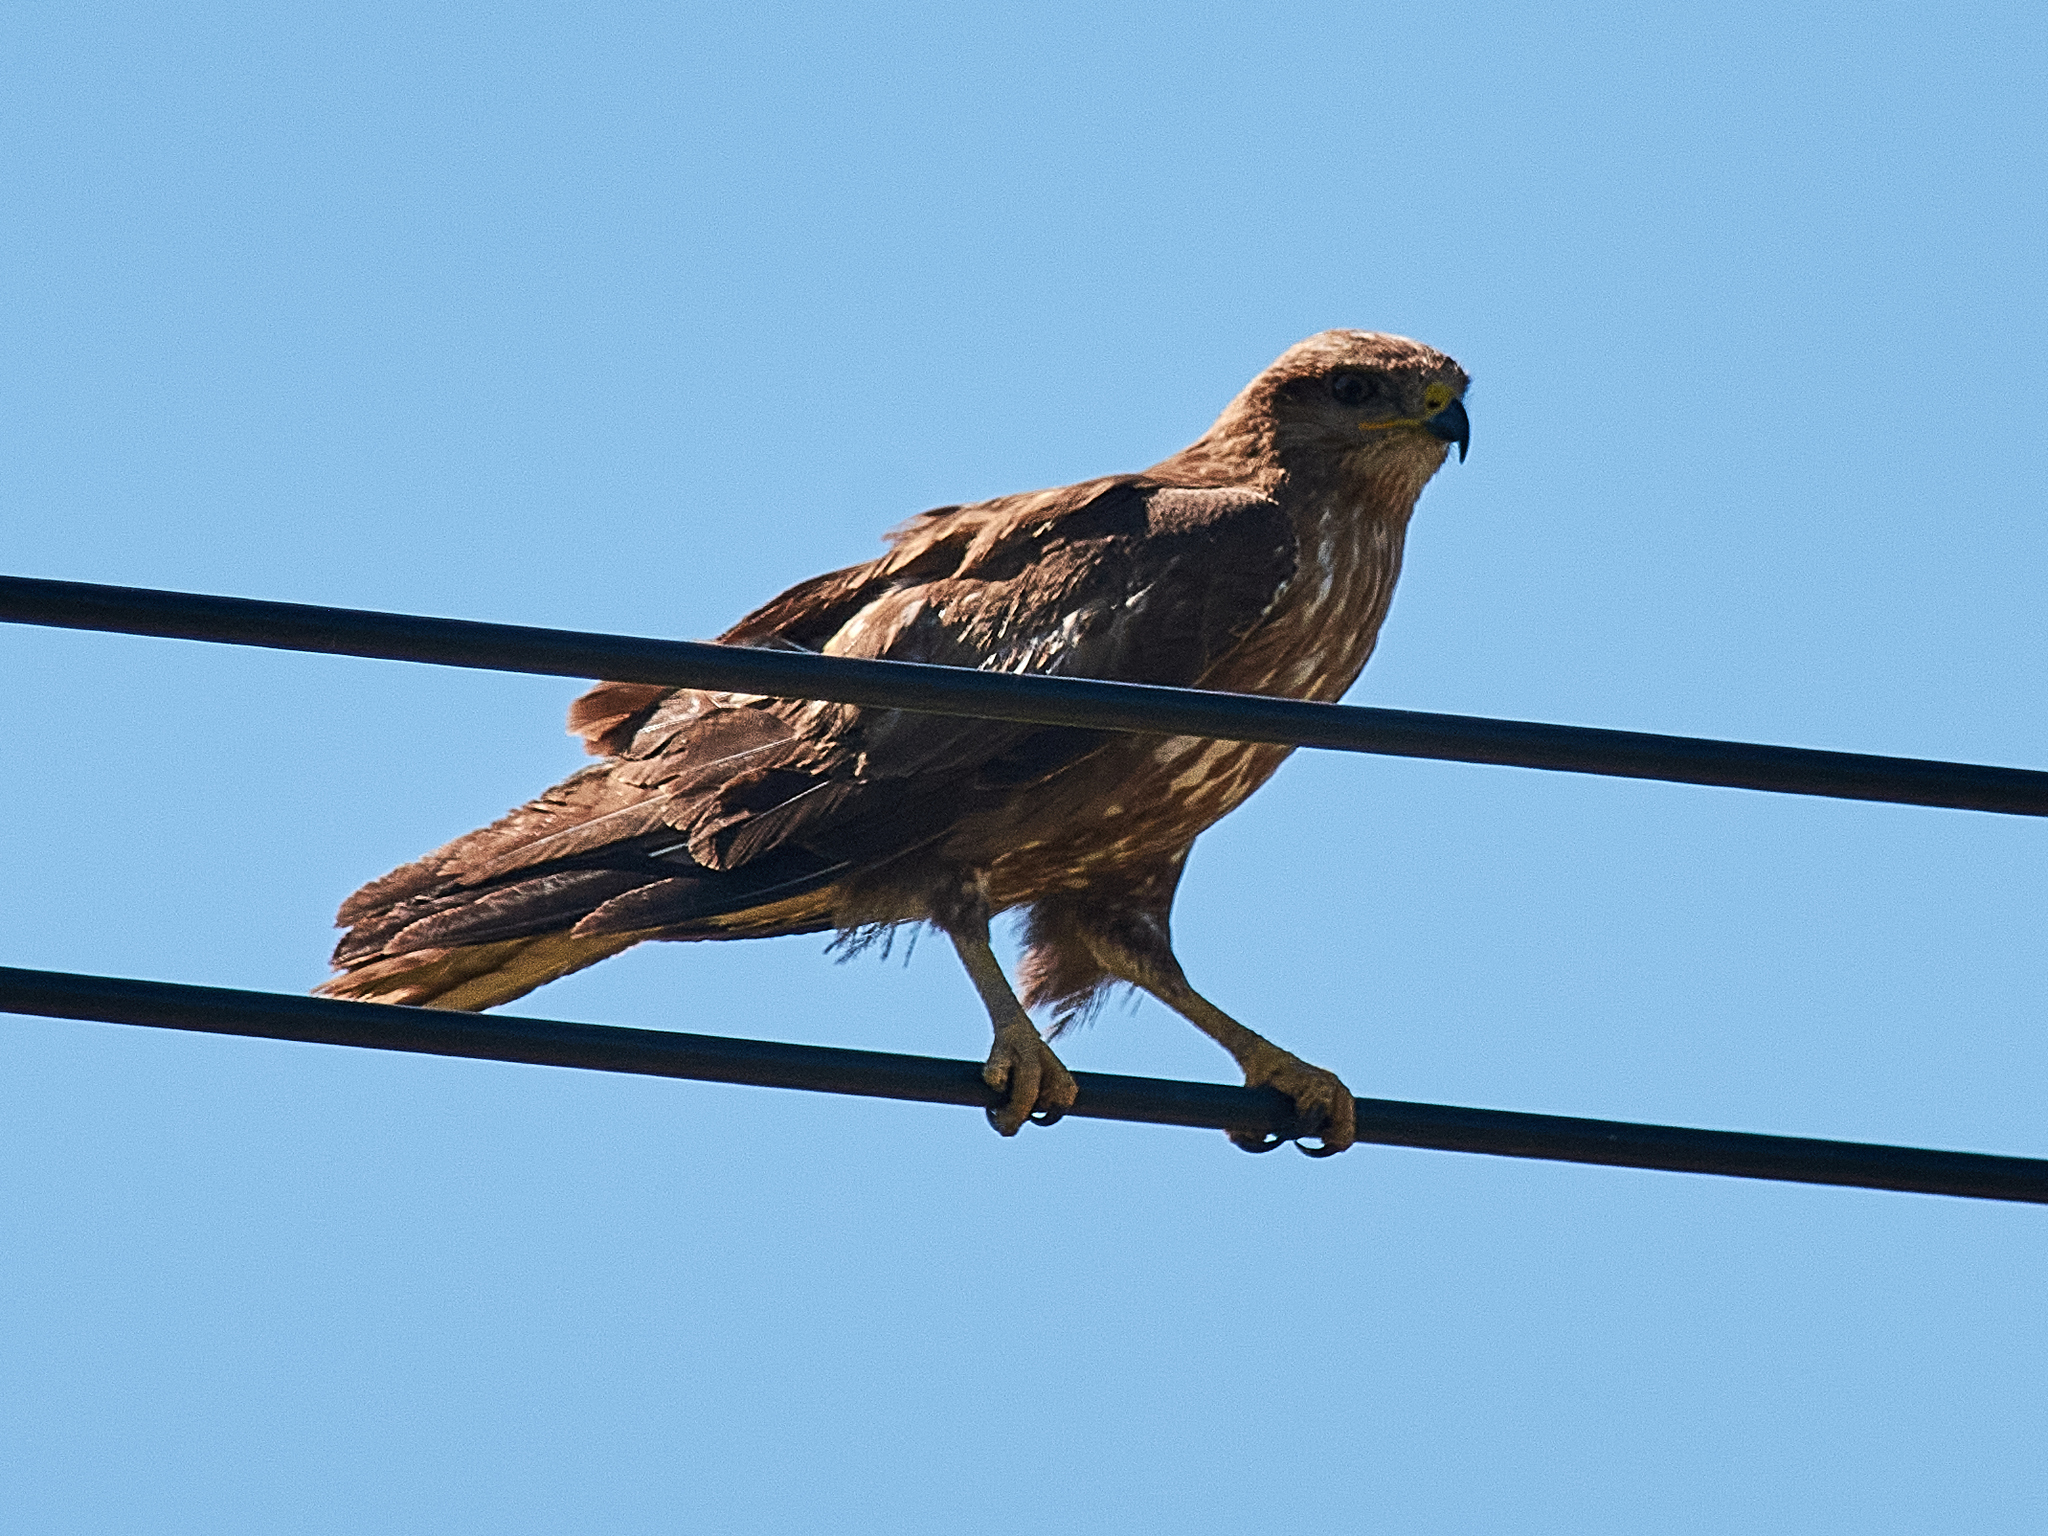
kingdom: Animalia
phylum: Chordata
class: Aves
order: Accipitriformes
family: Accipitridae
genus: Buteo
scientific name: Buteo buteo
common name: Common buzzard
